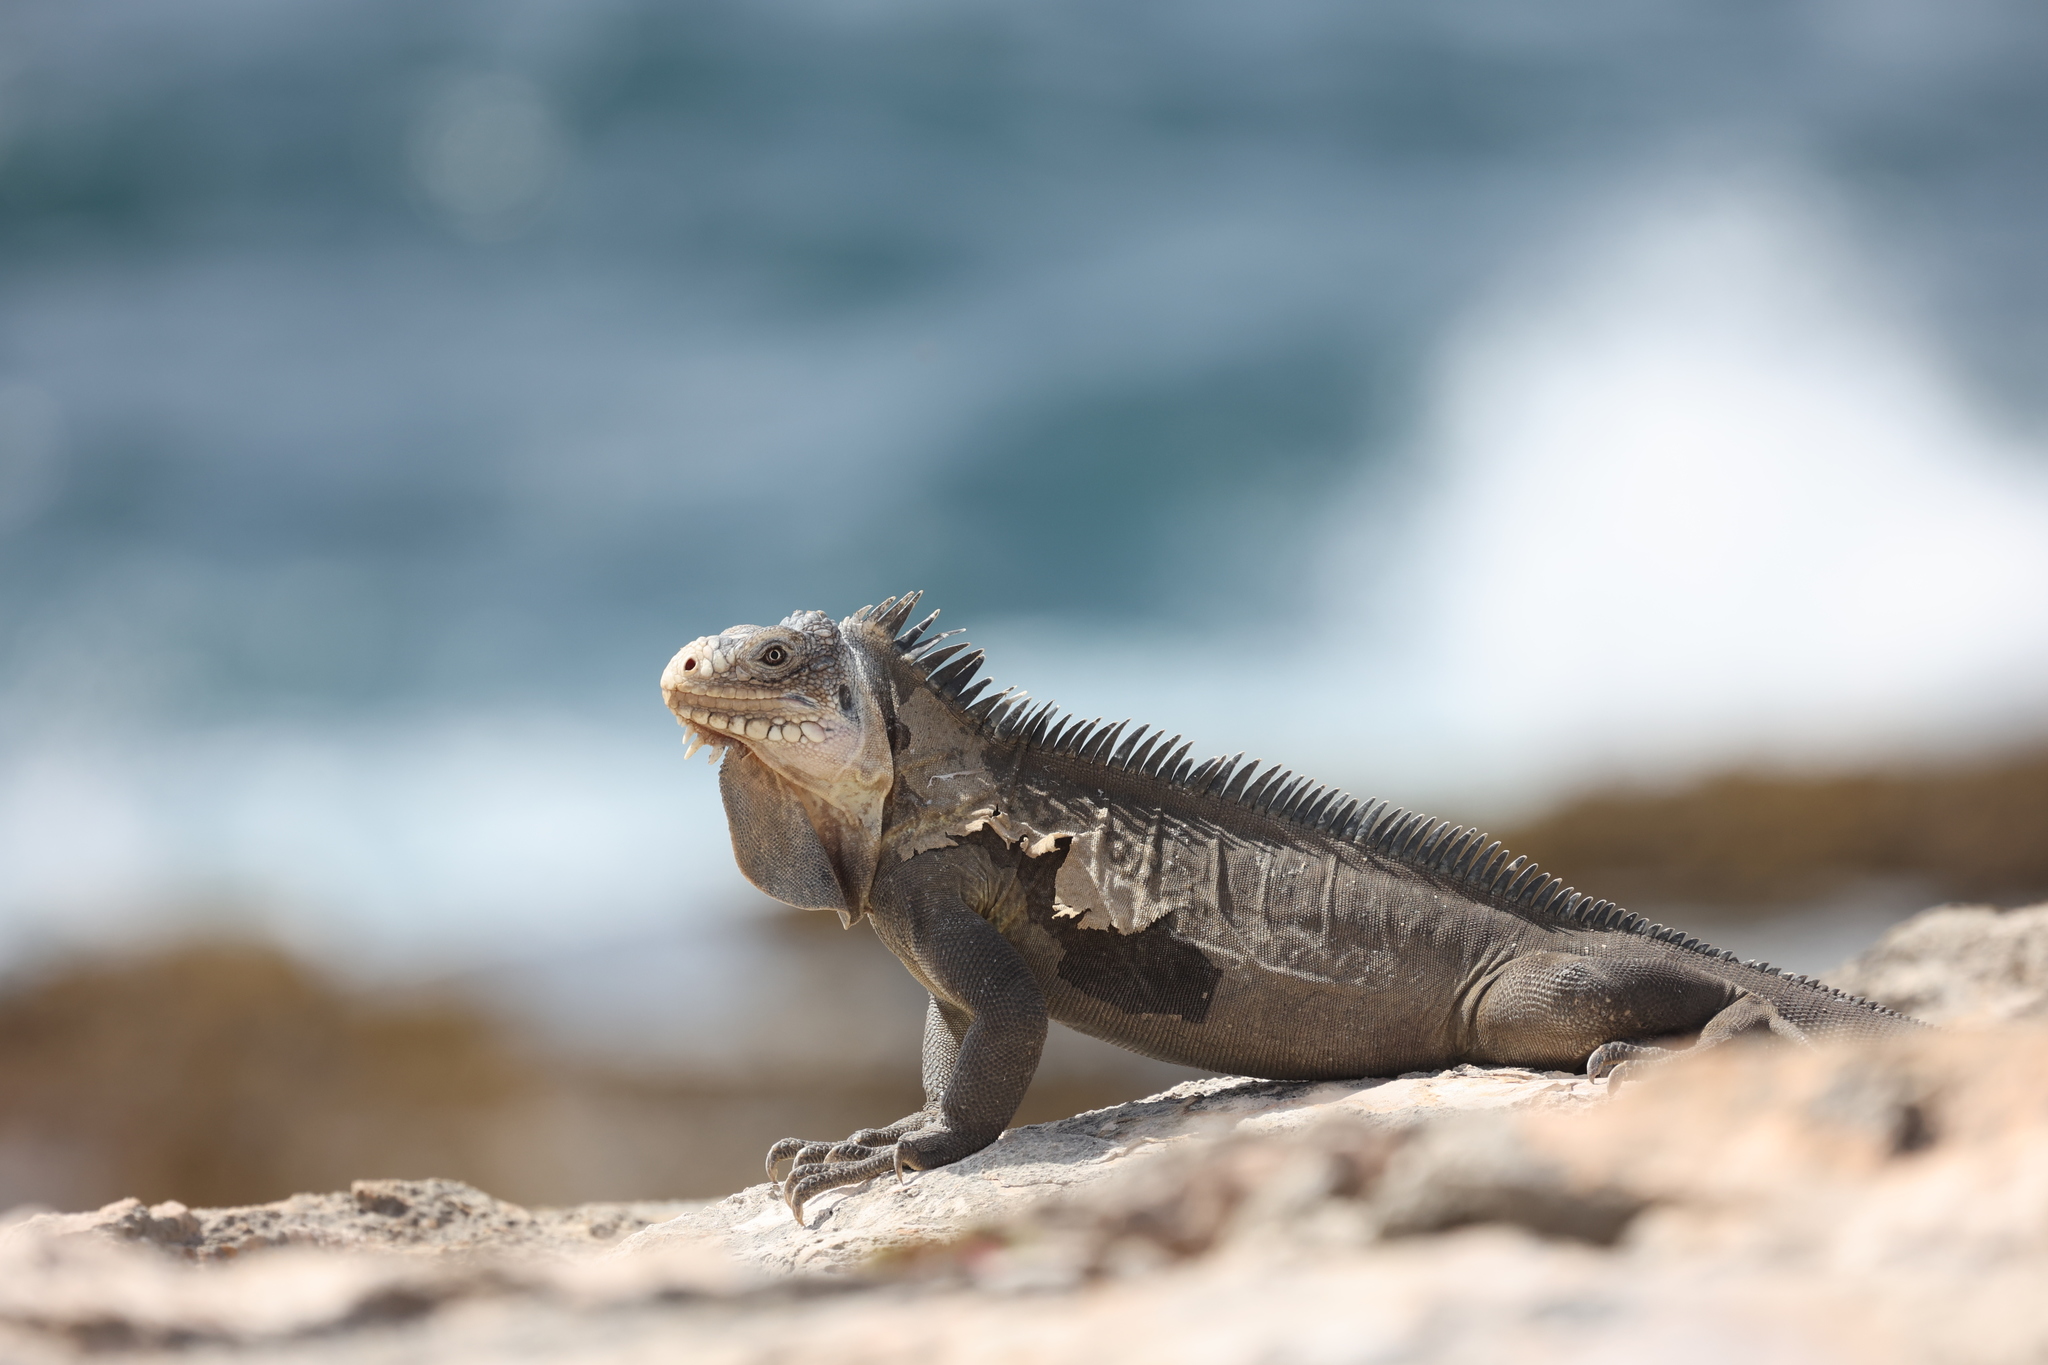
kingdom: Animalia
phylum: Chordata
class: Squamata
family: Iguanidae
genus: Iguana
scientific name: Iguana delicatissima
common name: West indian iguana
